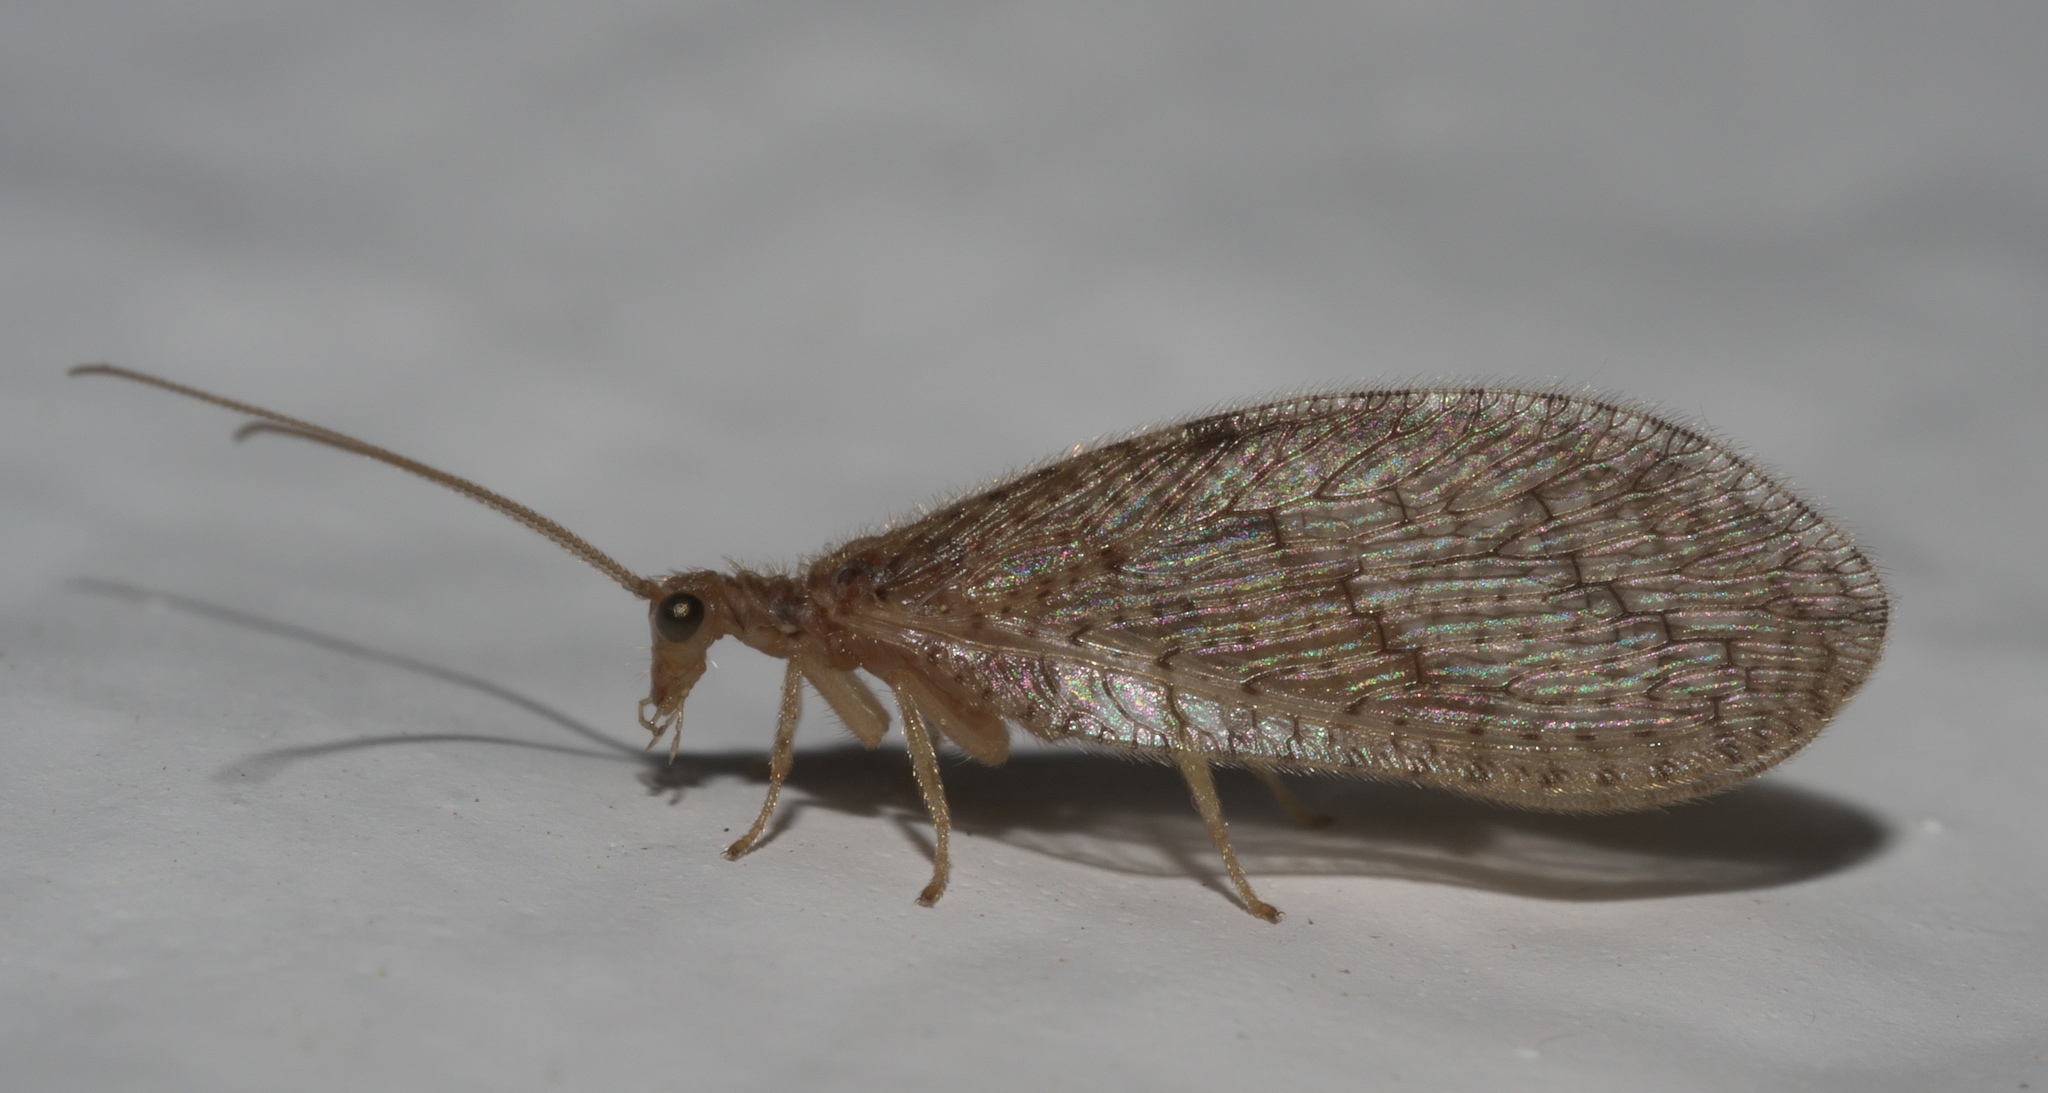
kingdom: Animalia
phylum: Arthropoda
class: Insecta
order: Neuroptera
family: Hemerobiidae
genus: Micromus
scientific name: Micromus posticus
